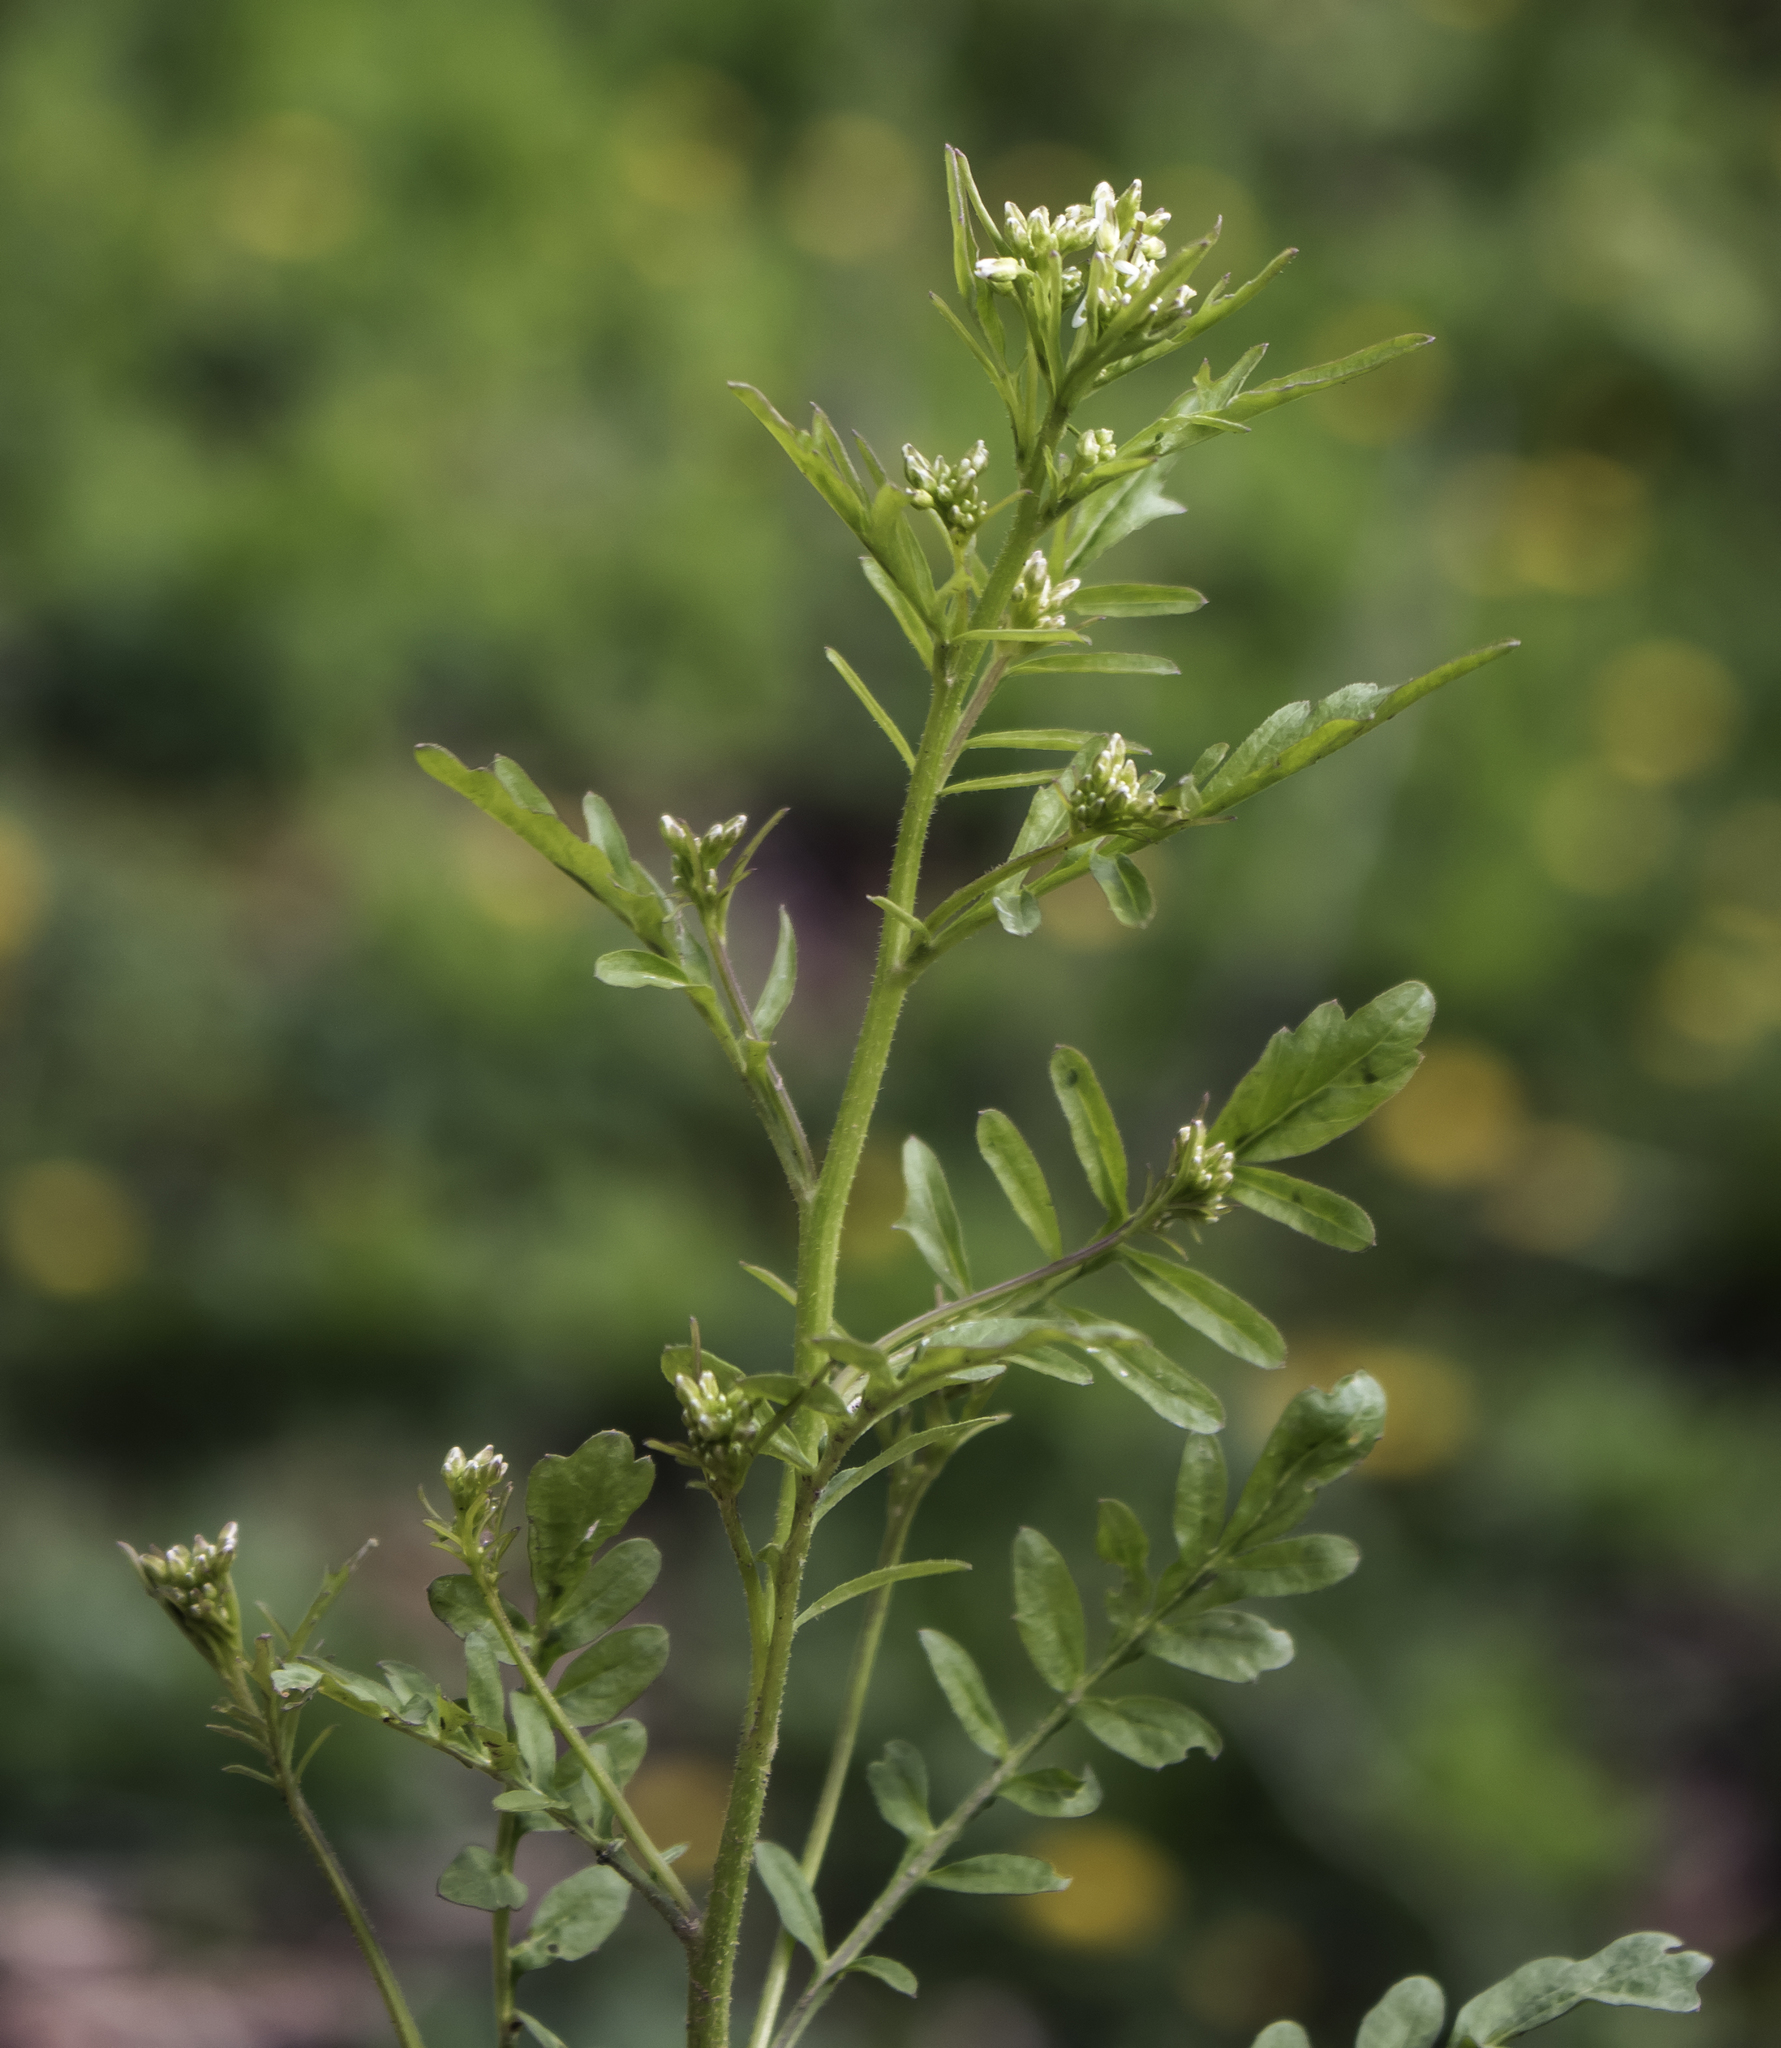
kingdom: Plantae
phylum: Tracheophyta
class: Magnoliopsida
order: Brassicales
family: Brassicaceae
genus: Cardamine
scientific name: Cardamine pensylvanica
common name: Pennsylvania bittercress
